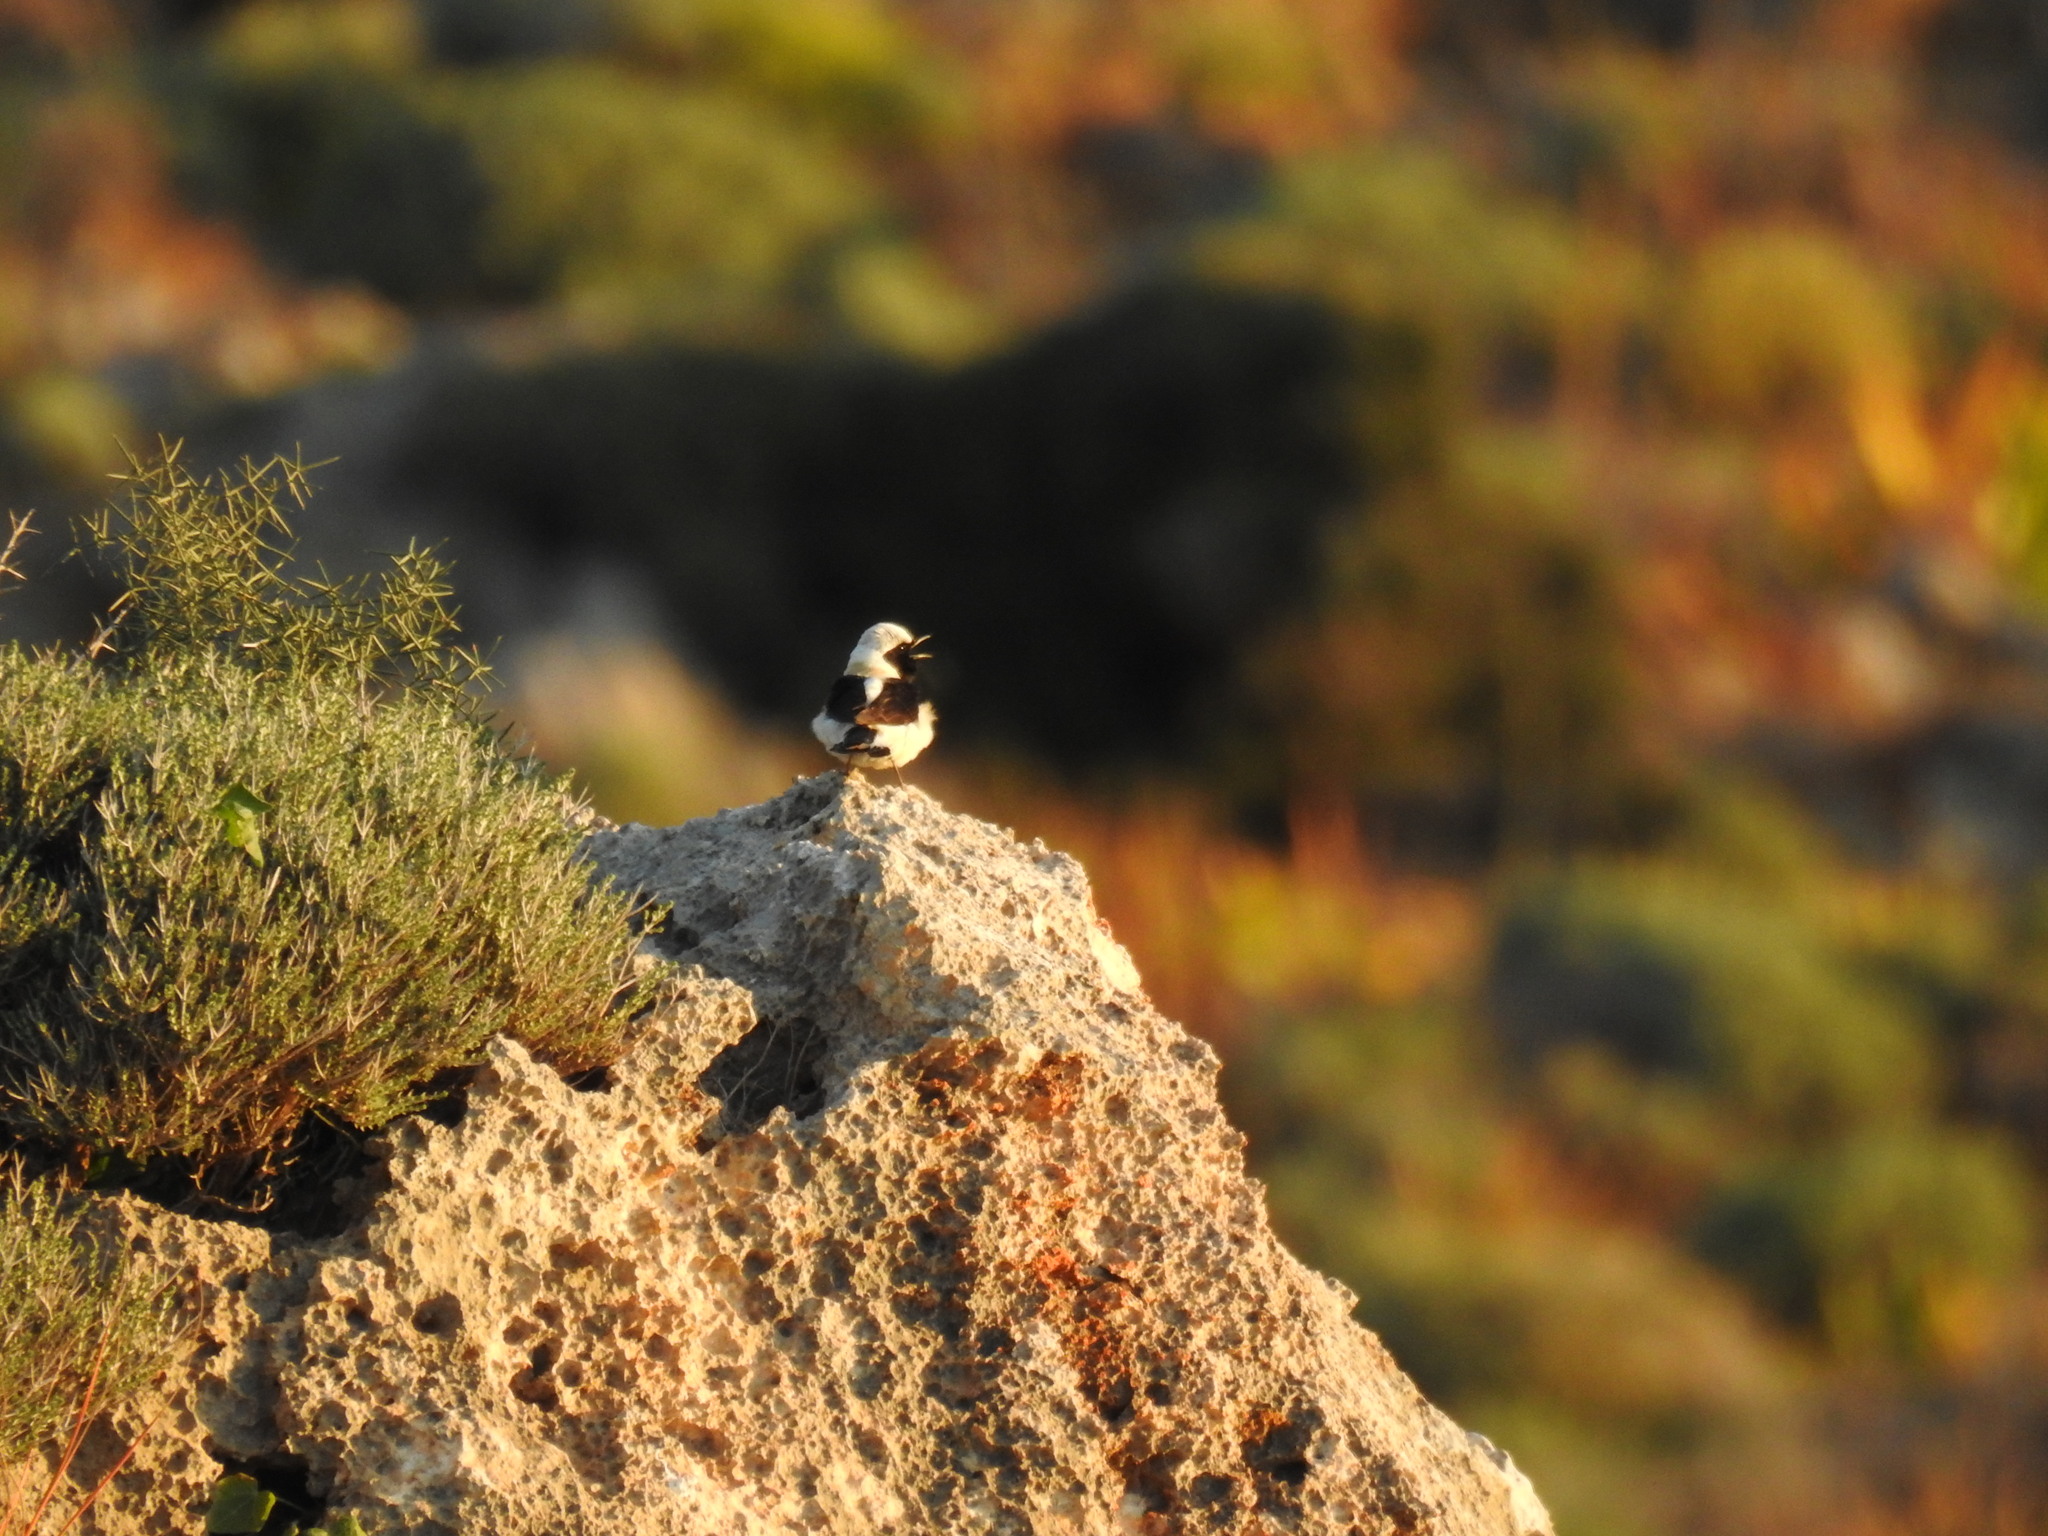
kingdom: Animalia
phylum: Chordata
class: Aves
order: Passeriformes
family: Muscicapidae
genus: Oenanthe
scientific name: Oenanthe hispanica
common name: Black-eared wheatear
